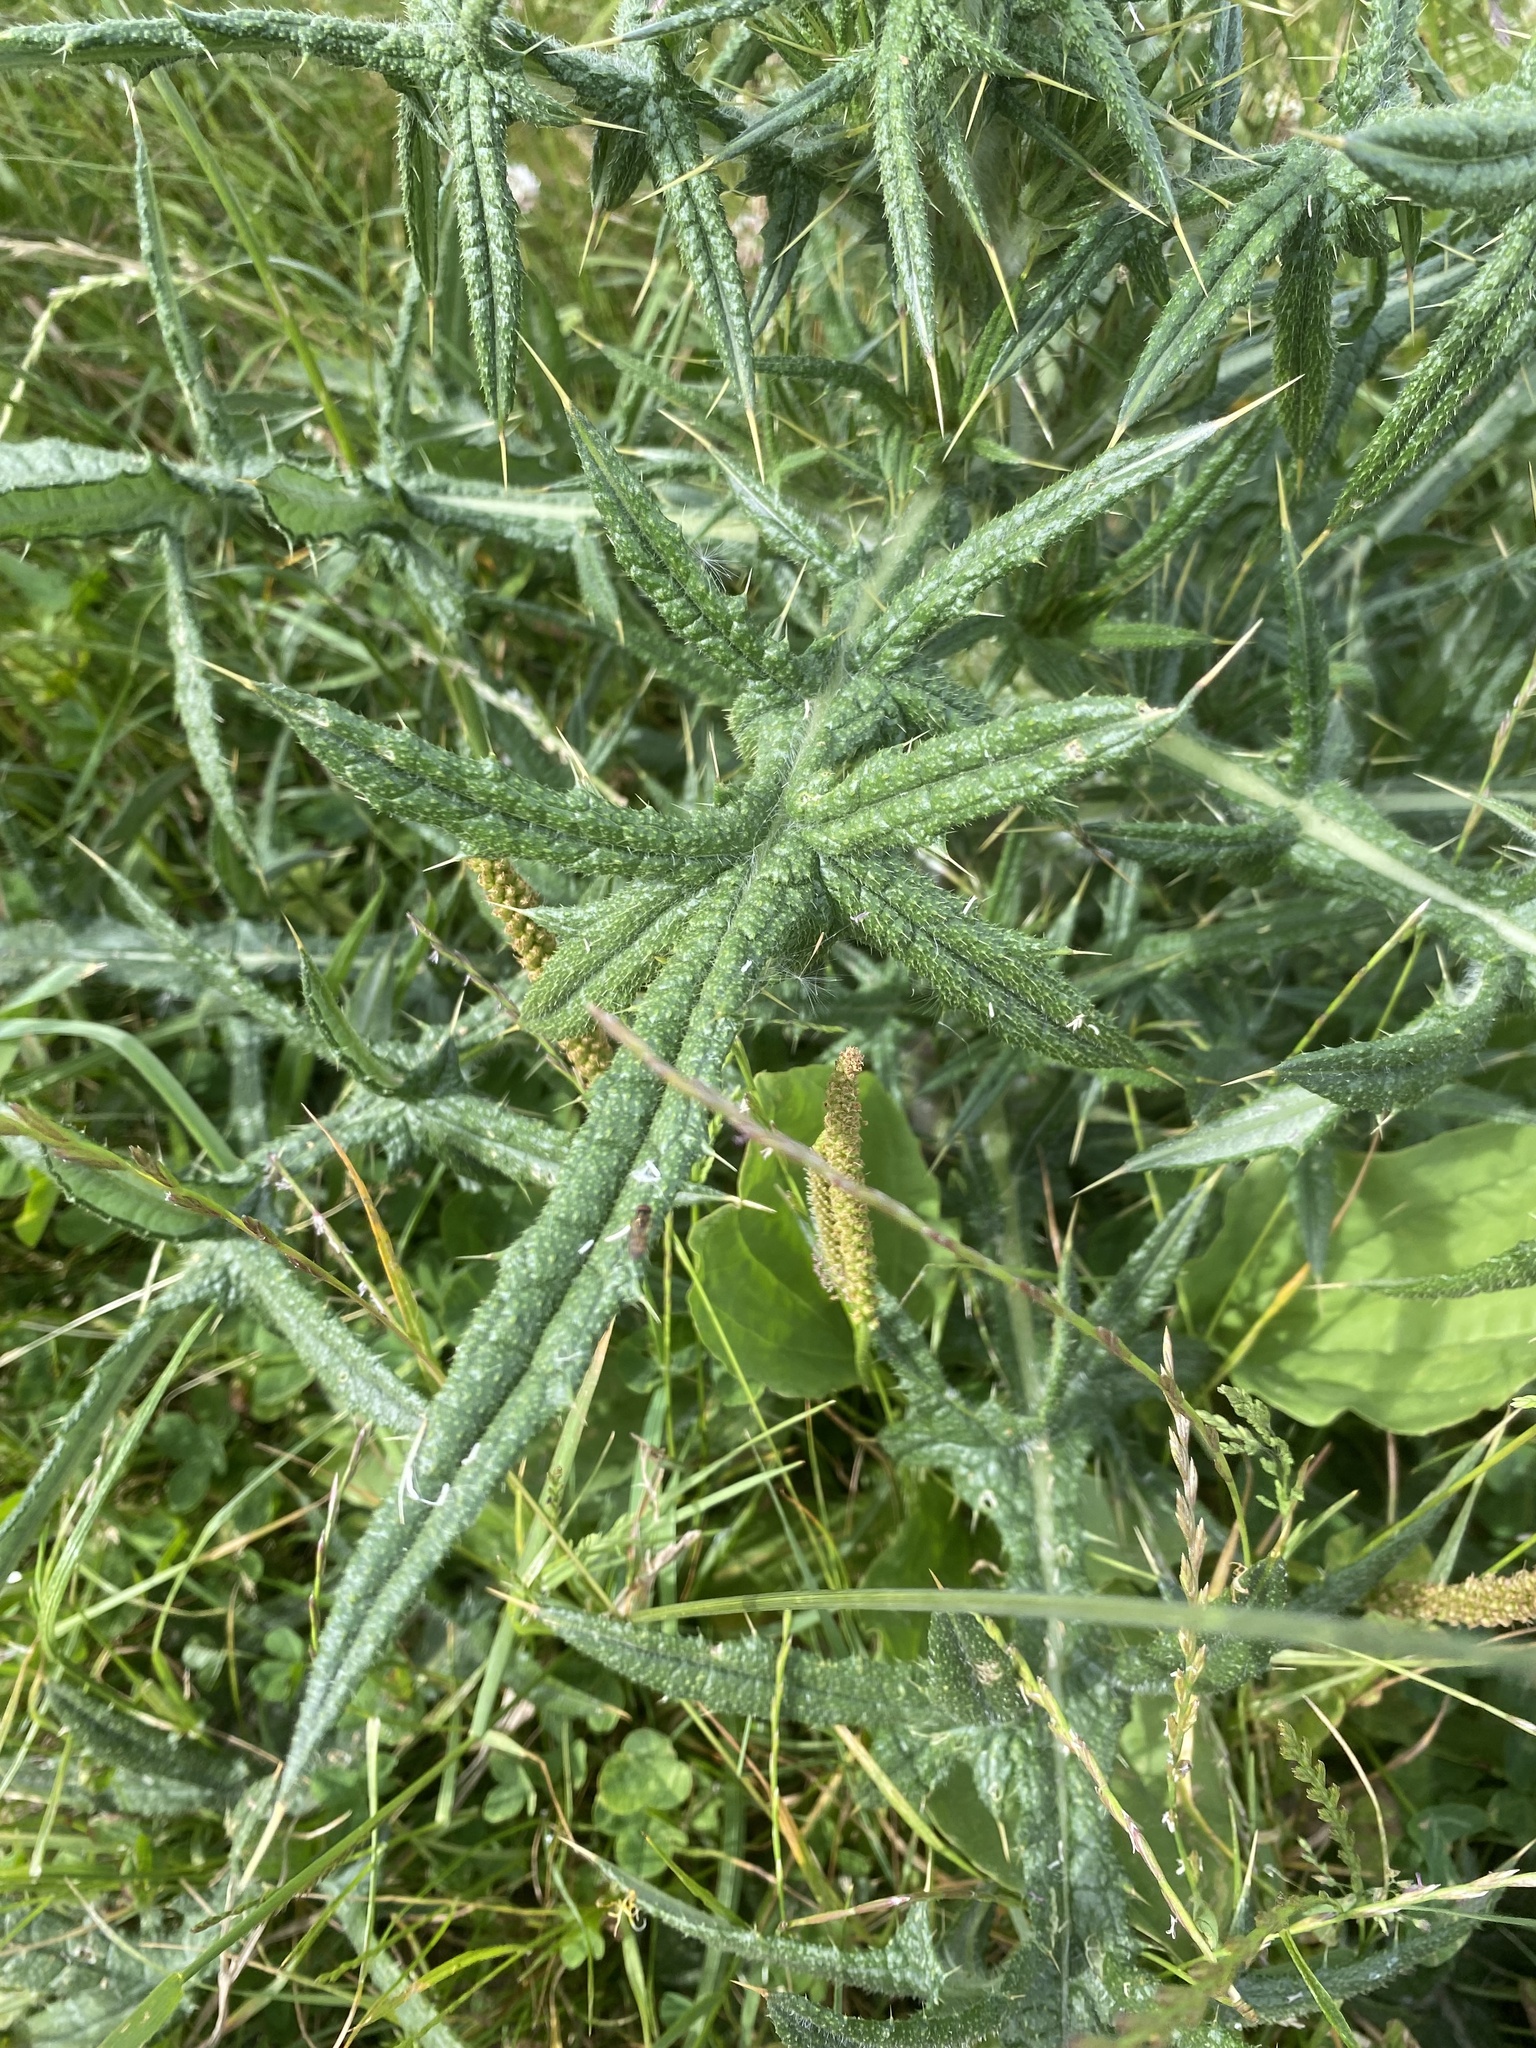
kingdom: Plantae
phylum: Tracheophyta
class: Magnoliopsida
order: Asterales
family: Asteraceae
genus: Cirsium
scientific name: Cirsium vulgare
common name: Bull thistle
